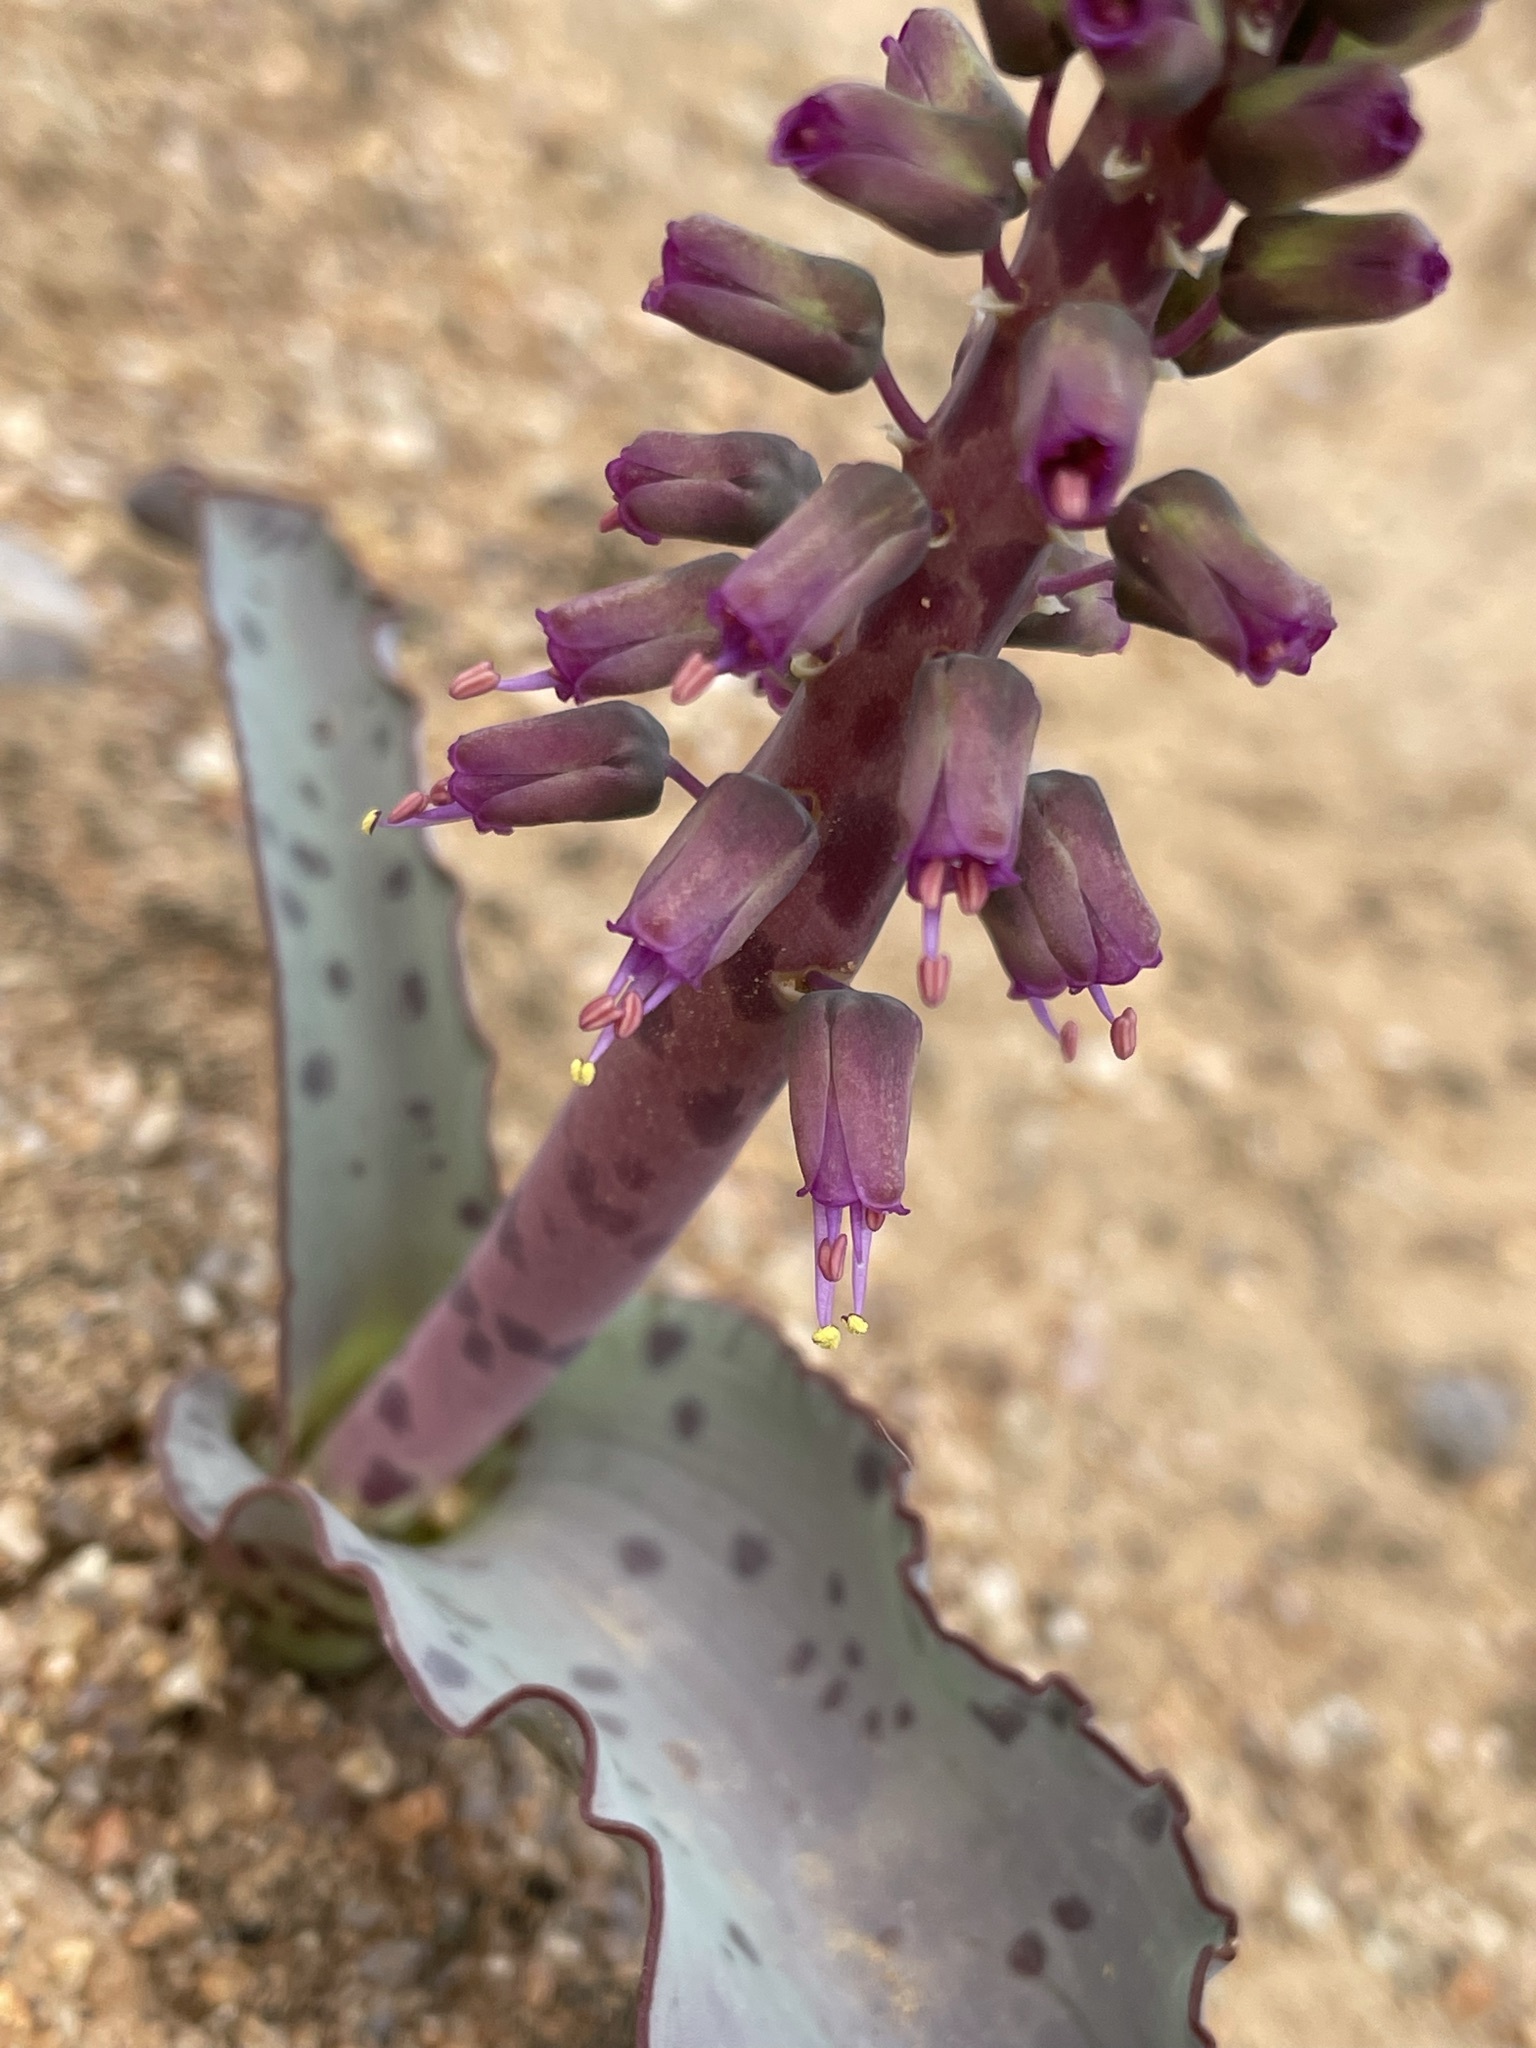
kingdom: Plantae
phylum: Tracheophyta
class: Liliopsida
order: Asparagales
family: Asparagaceae
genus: Lachenalia
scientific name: Lachenalia violacea
